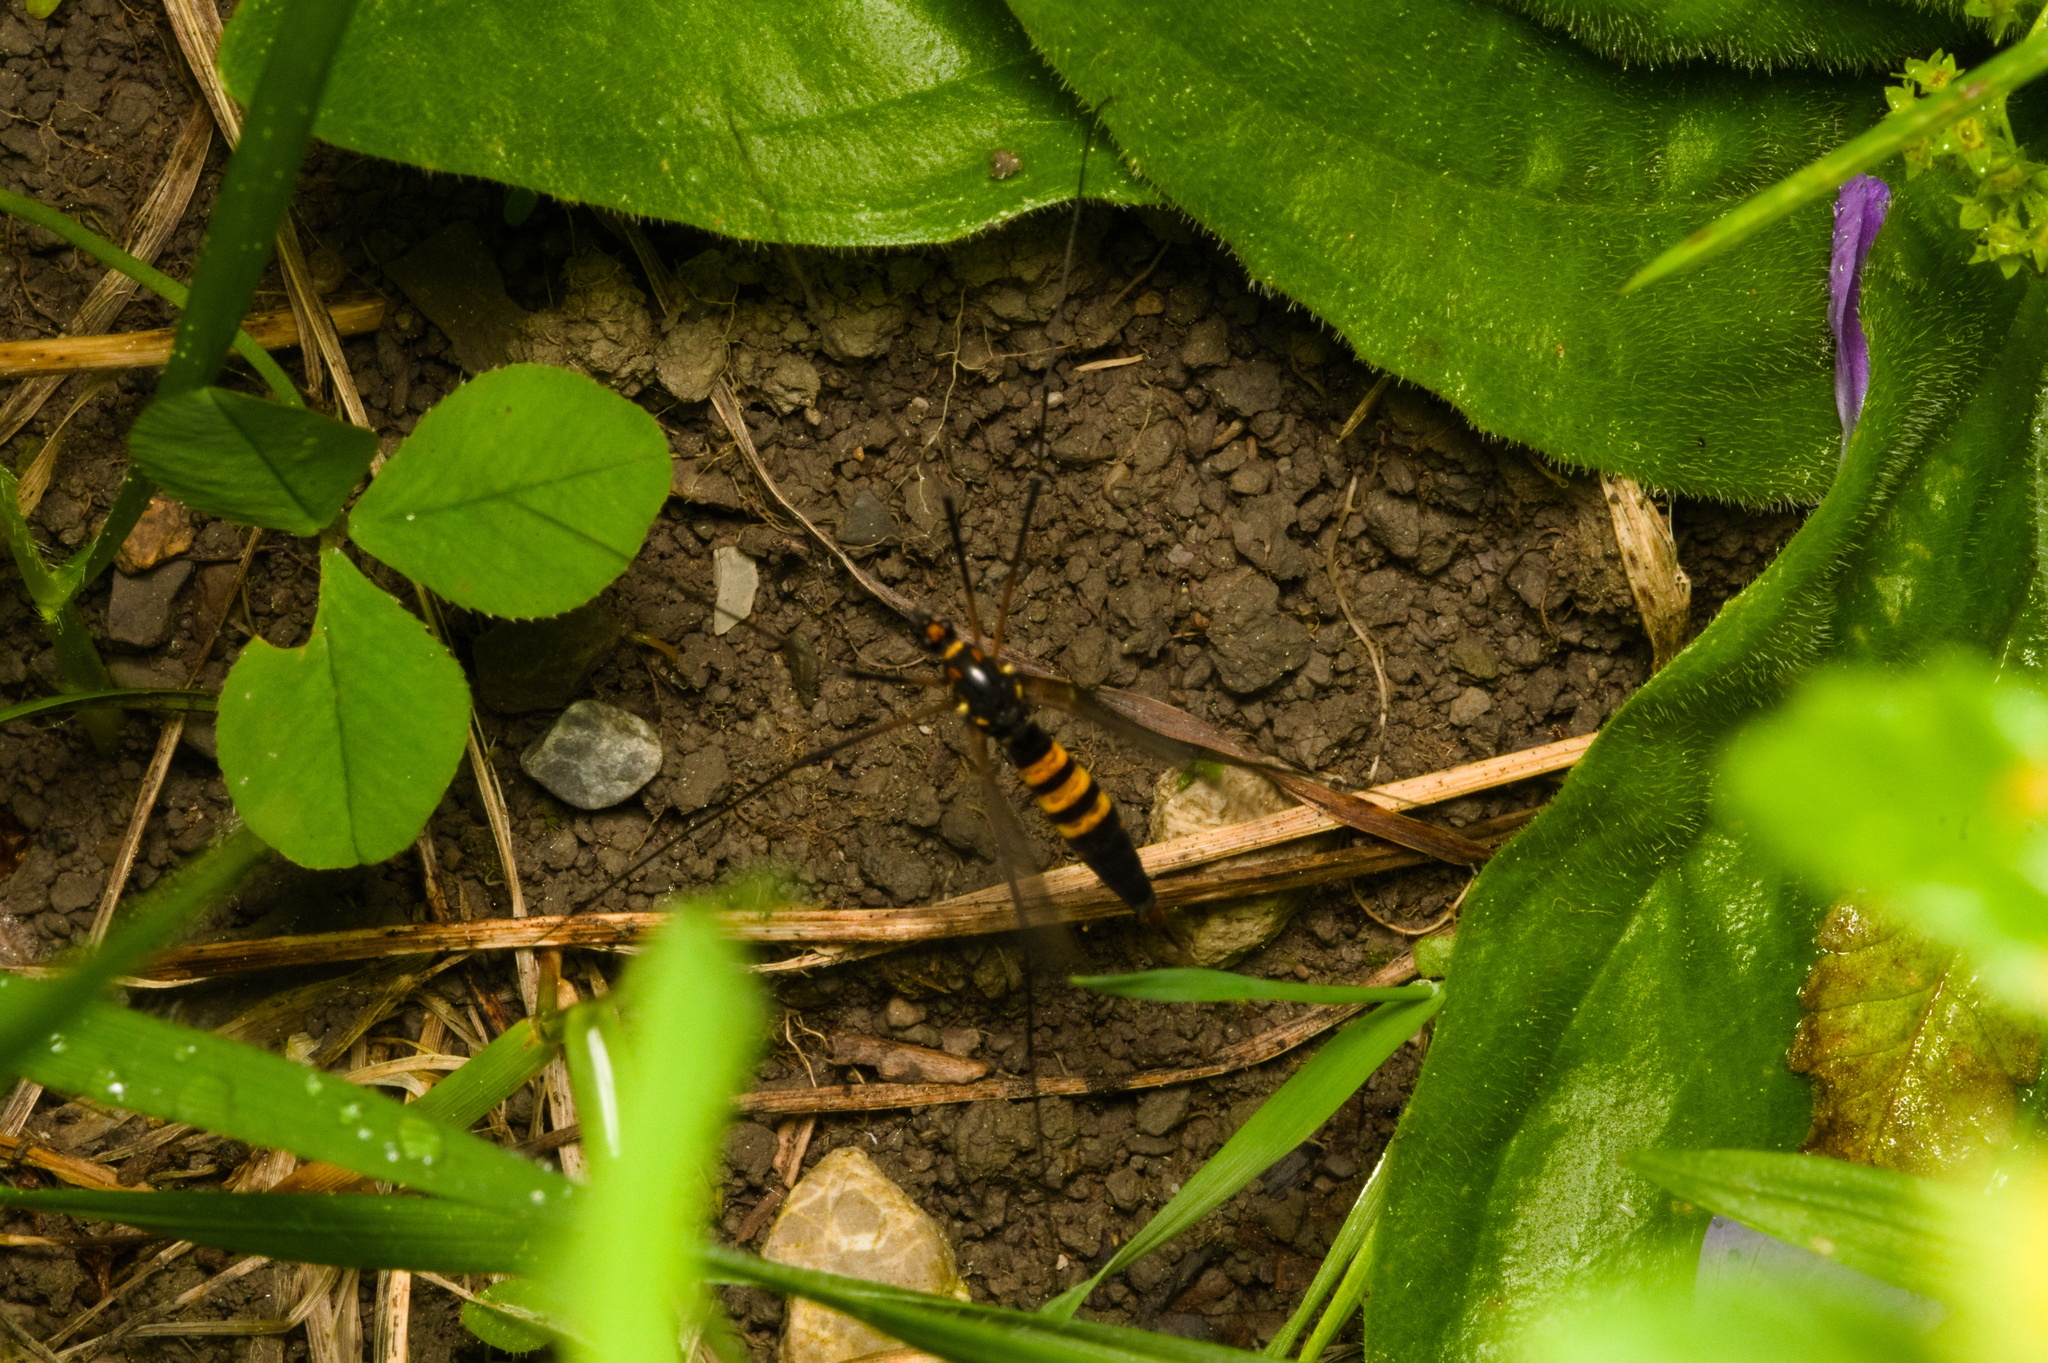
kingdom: Animalia
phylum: Arthropoda
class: Insecta
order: Diptera
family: Tipulidae
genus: Nephrotoma
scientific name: Nephrotoma crocata
